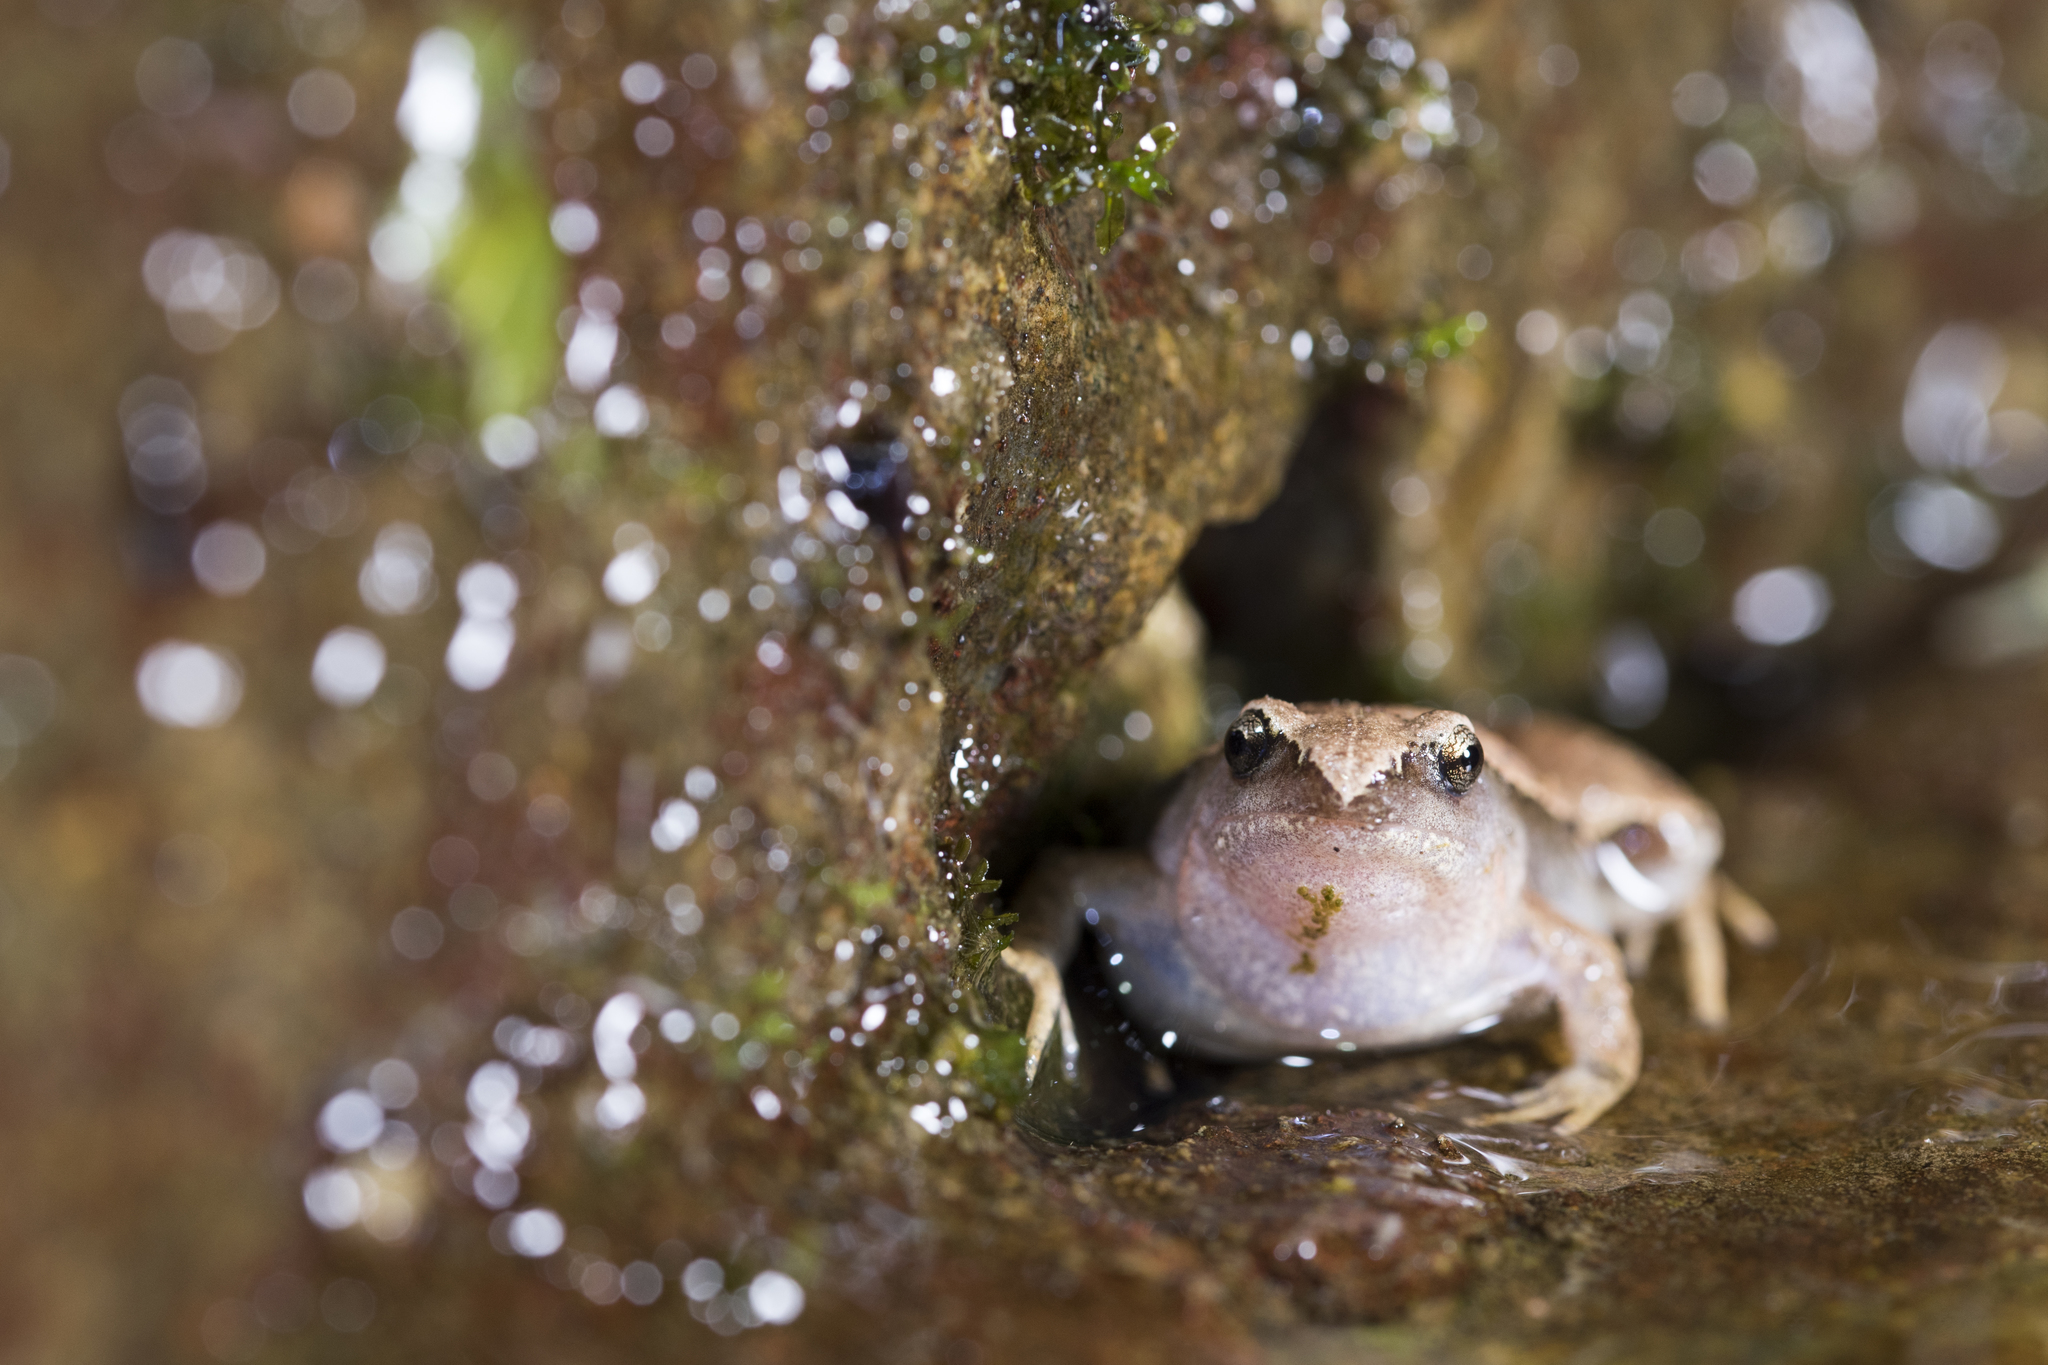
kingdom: Animalia
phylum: Chordata
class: Amphibia
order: Anura
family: Microhylidae
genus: Microhyla
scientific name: Microhyla heymonsi
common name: Taiwan rice frog,dark sided chorus frog
